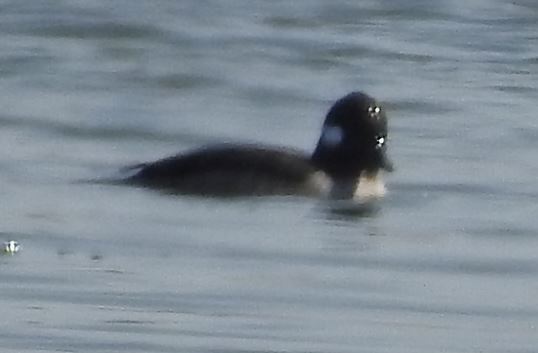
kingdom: Animalia
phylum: Chordata
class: Aves
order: Anseriformes
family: Anatidae
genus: Bucephala
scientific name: Bucephala albeola
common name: Bufflehead
